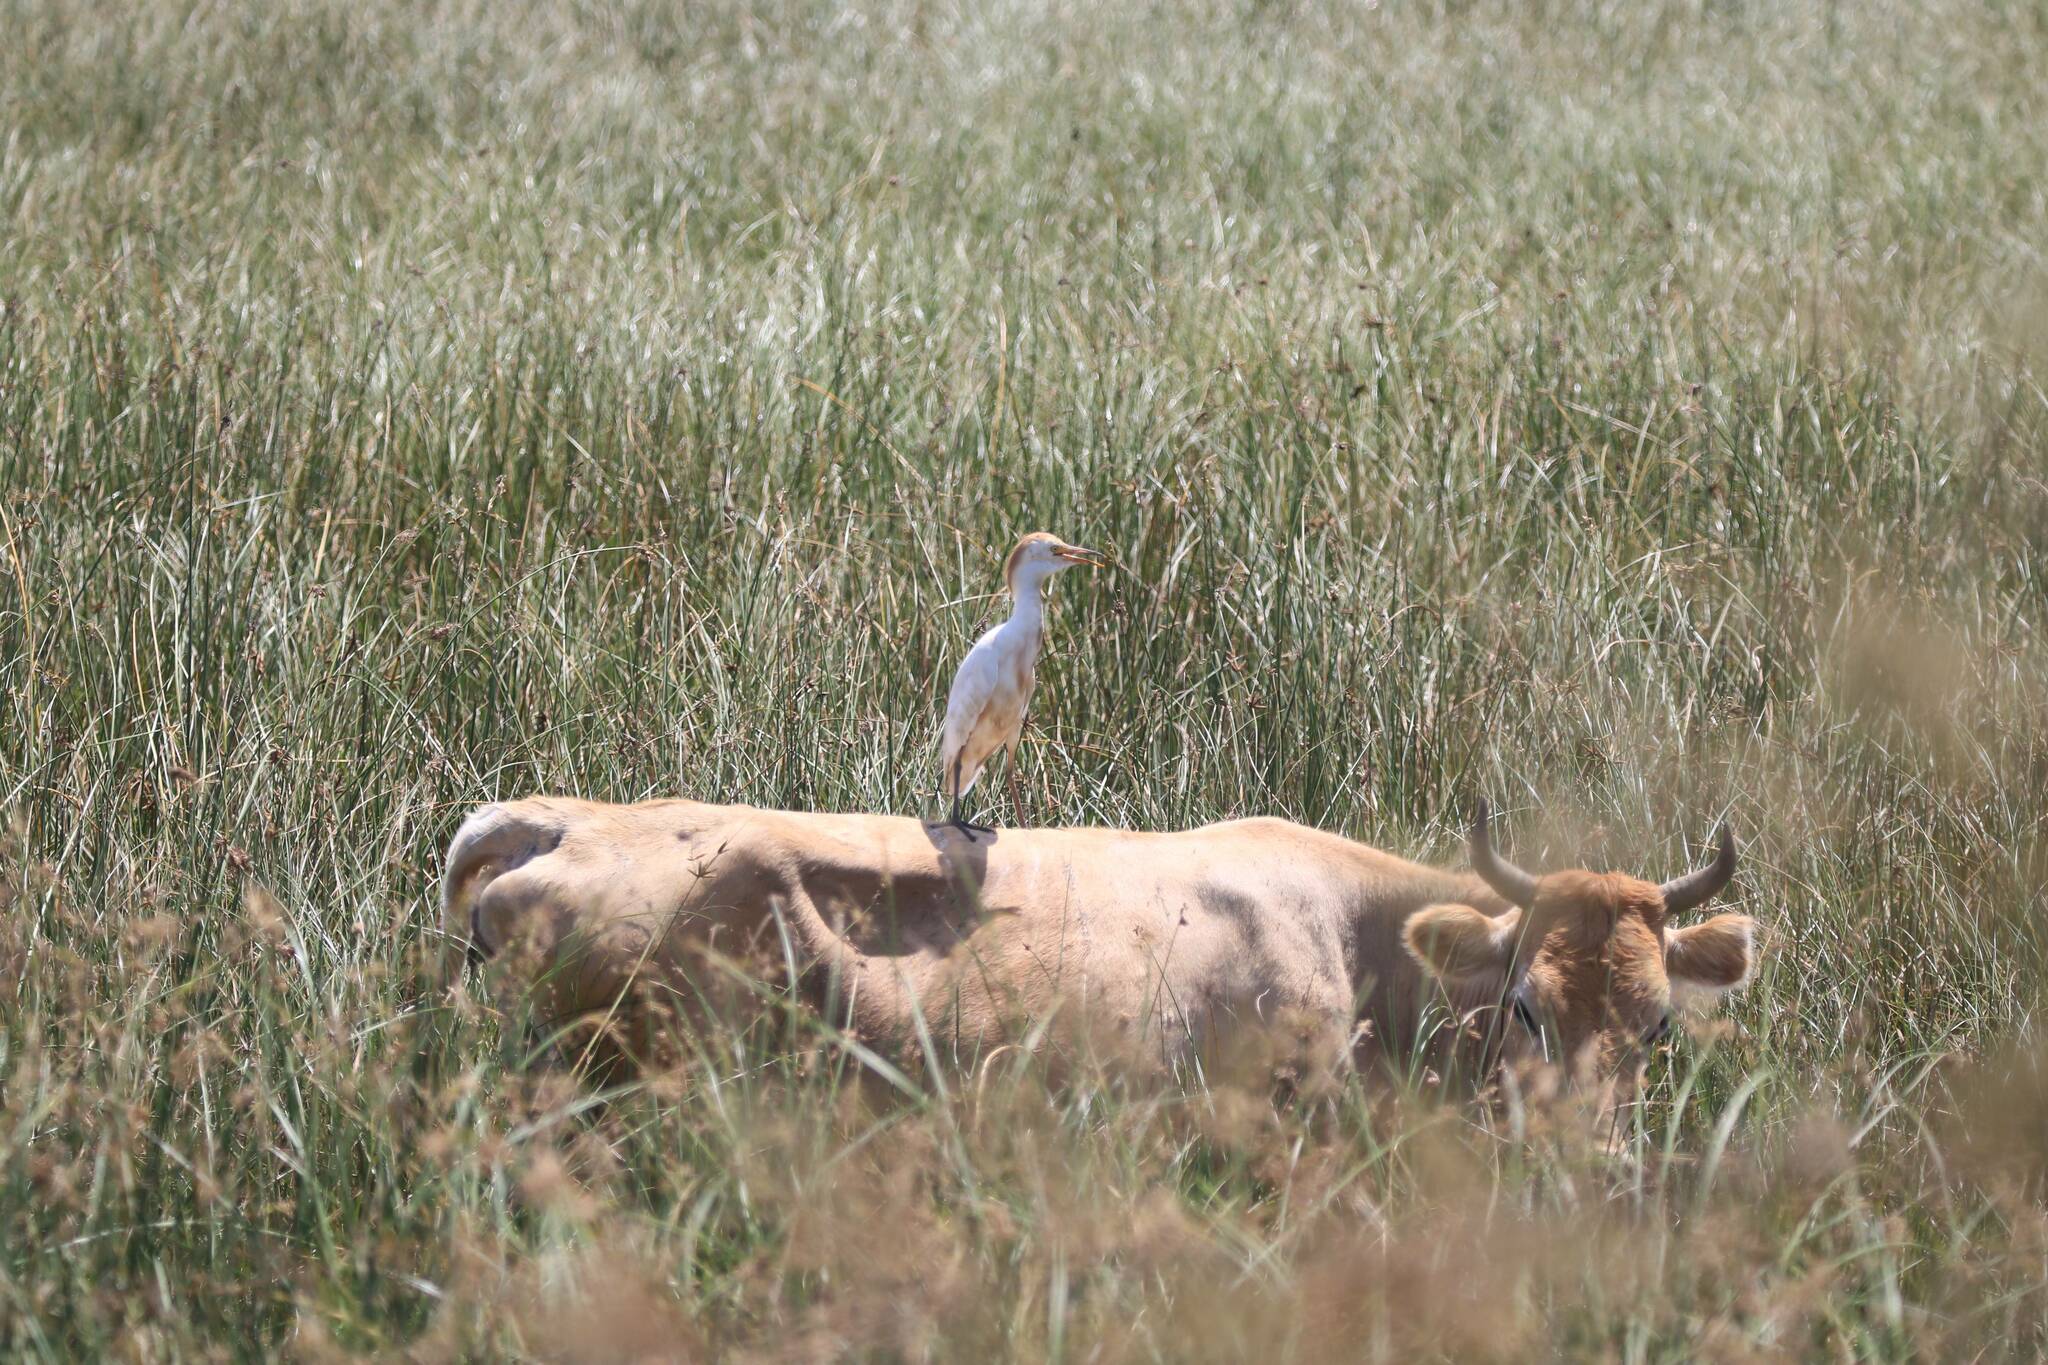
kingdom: Animalia
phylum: Chordata
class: Aves
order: Pelecaniformes
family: Ardeidae
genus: Bubulcus
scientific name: Bubulcus ibis
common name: Cattle egret
